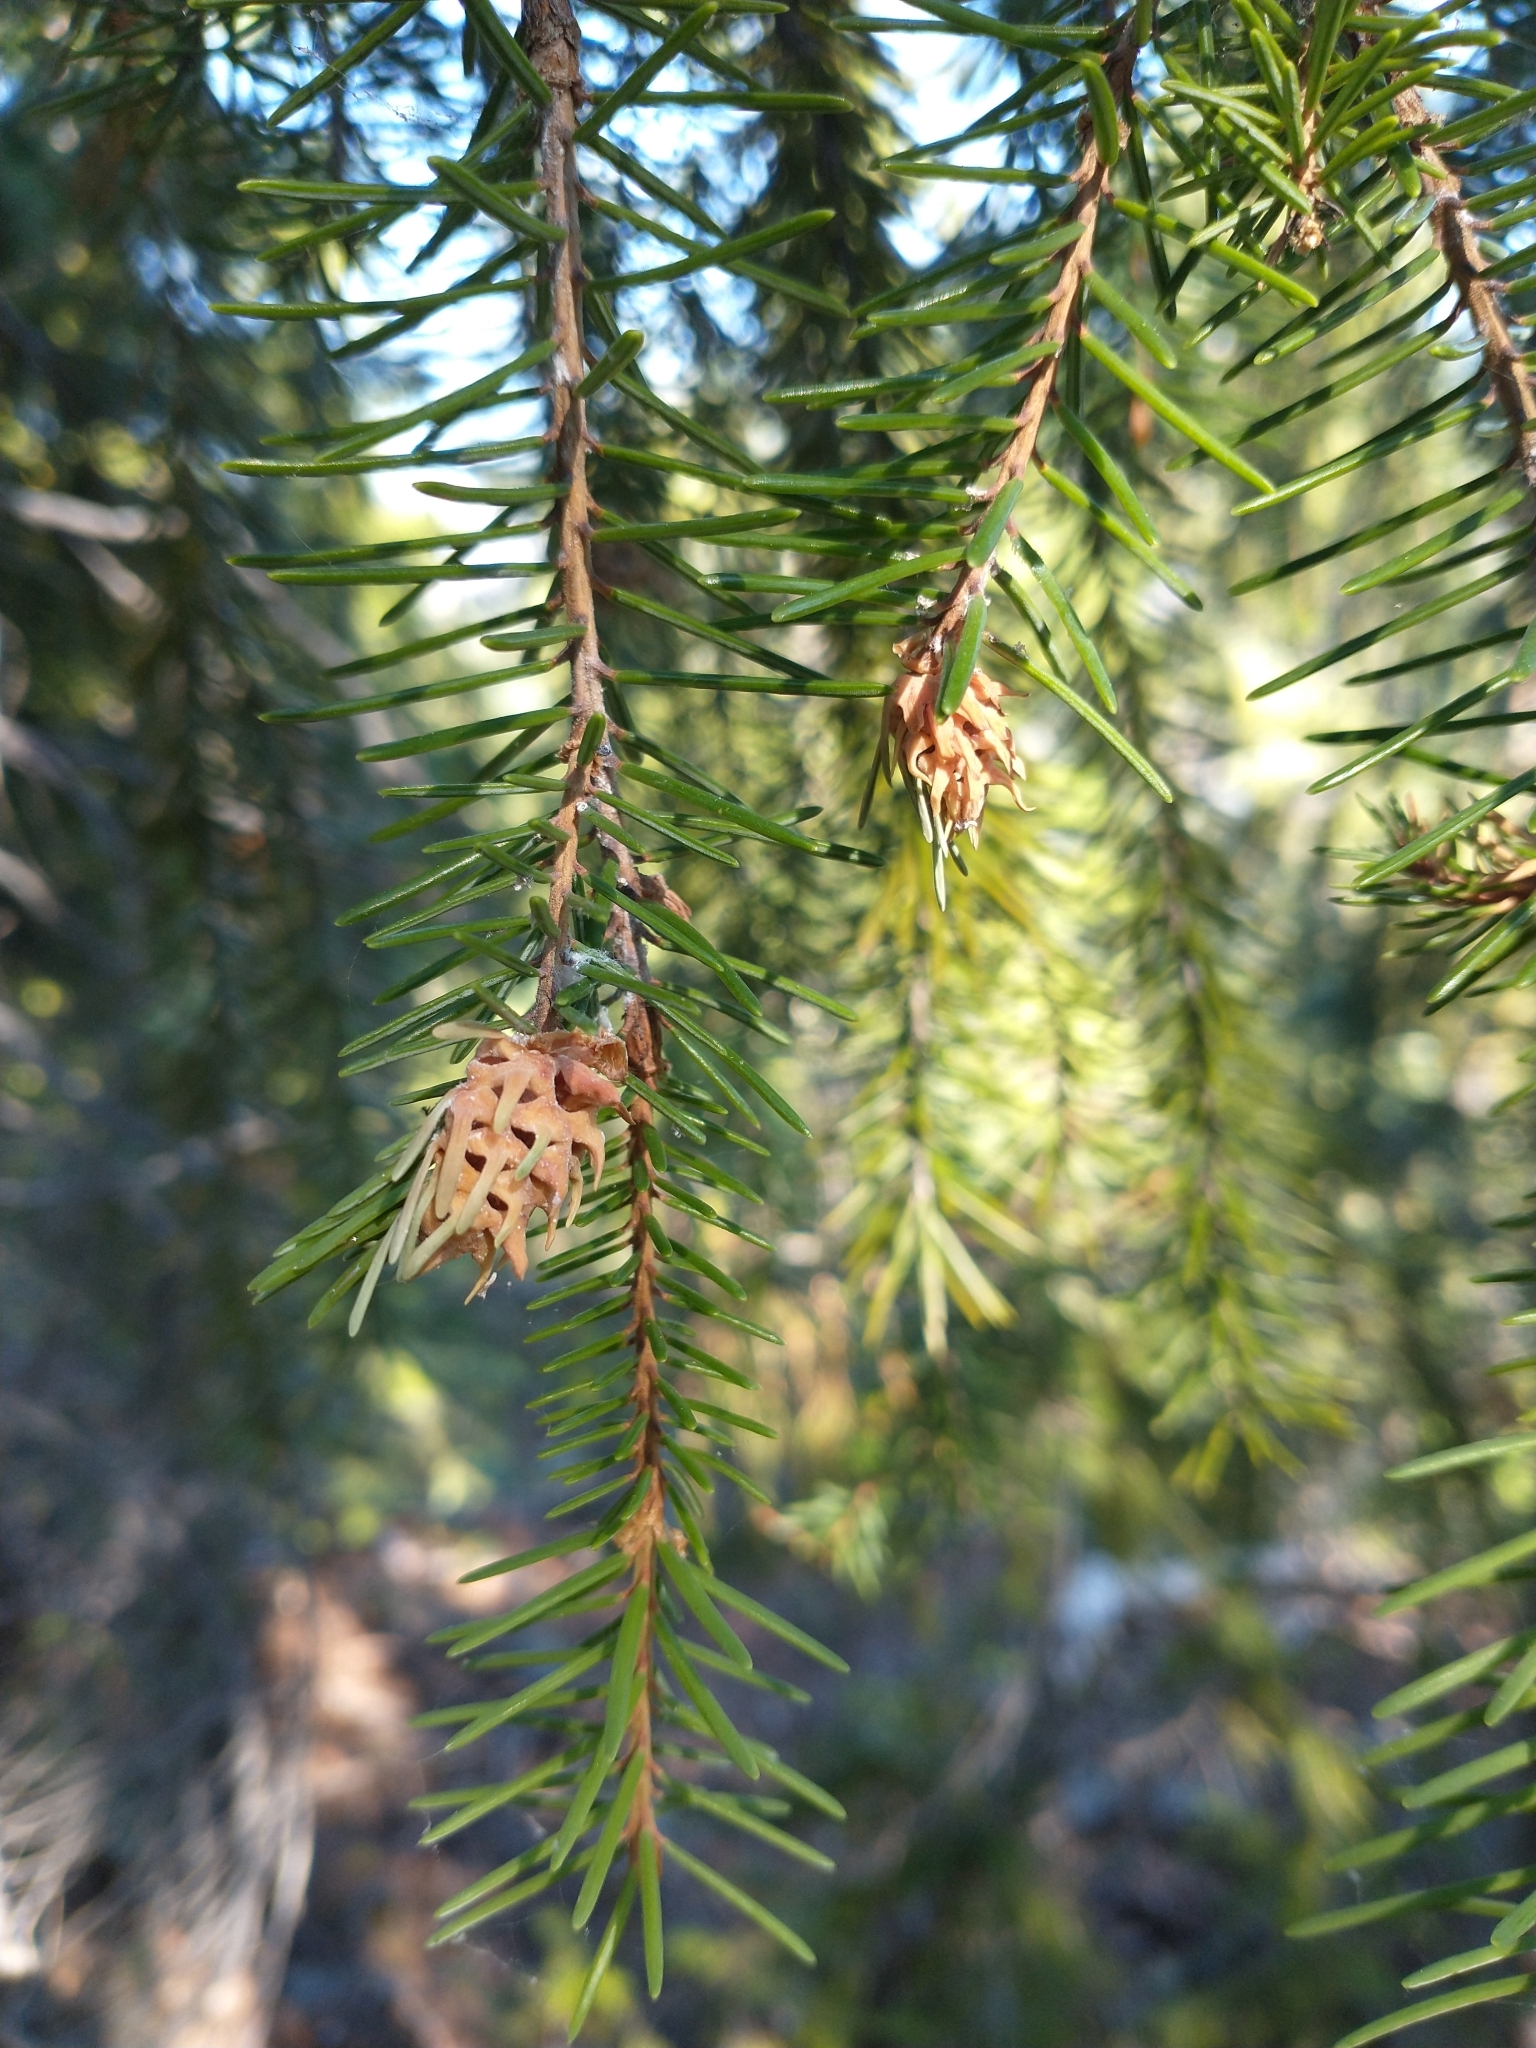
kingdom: Plantae
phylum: Tracheophyta
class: Pinopsida
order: Pinales
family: Pinaceae
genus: Picea
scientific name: Picea breweriana
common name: Brewer's spruce
